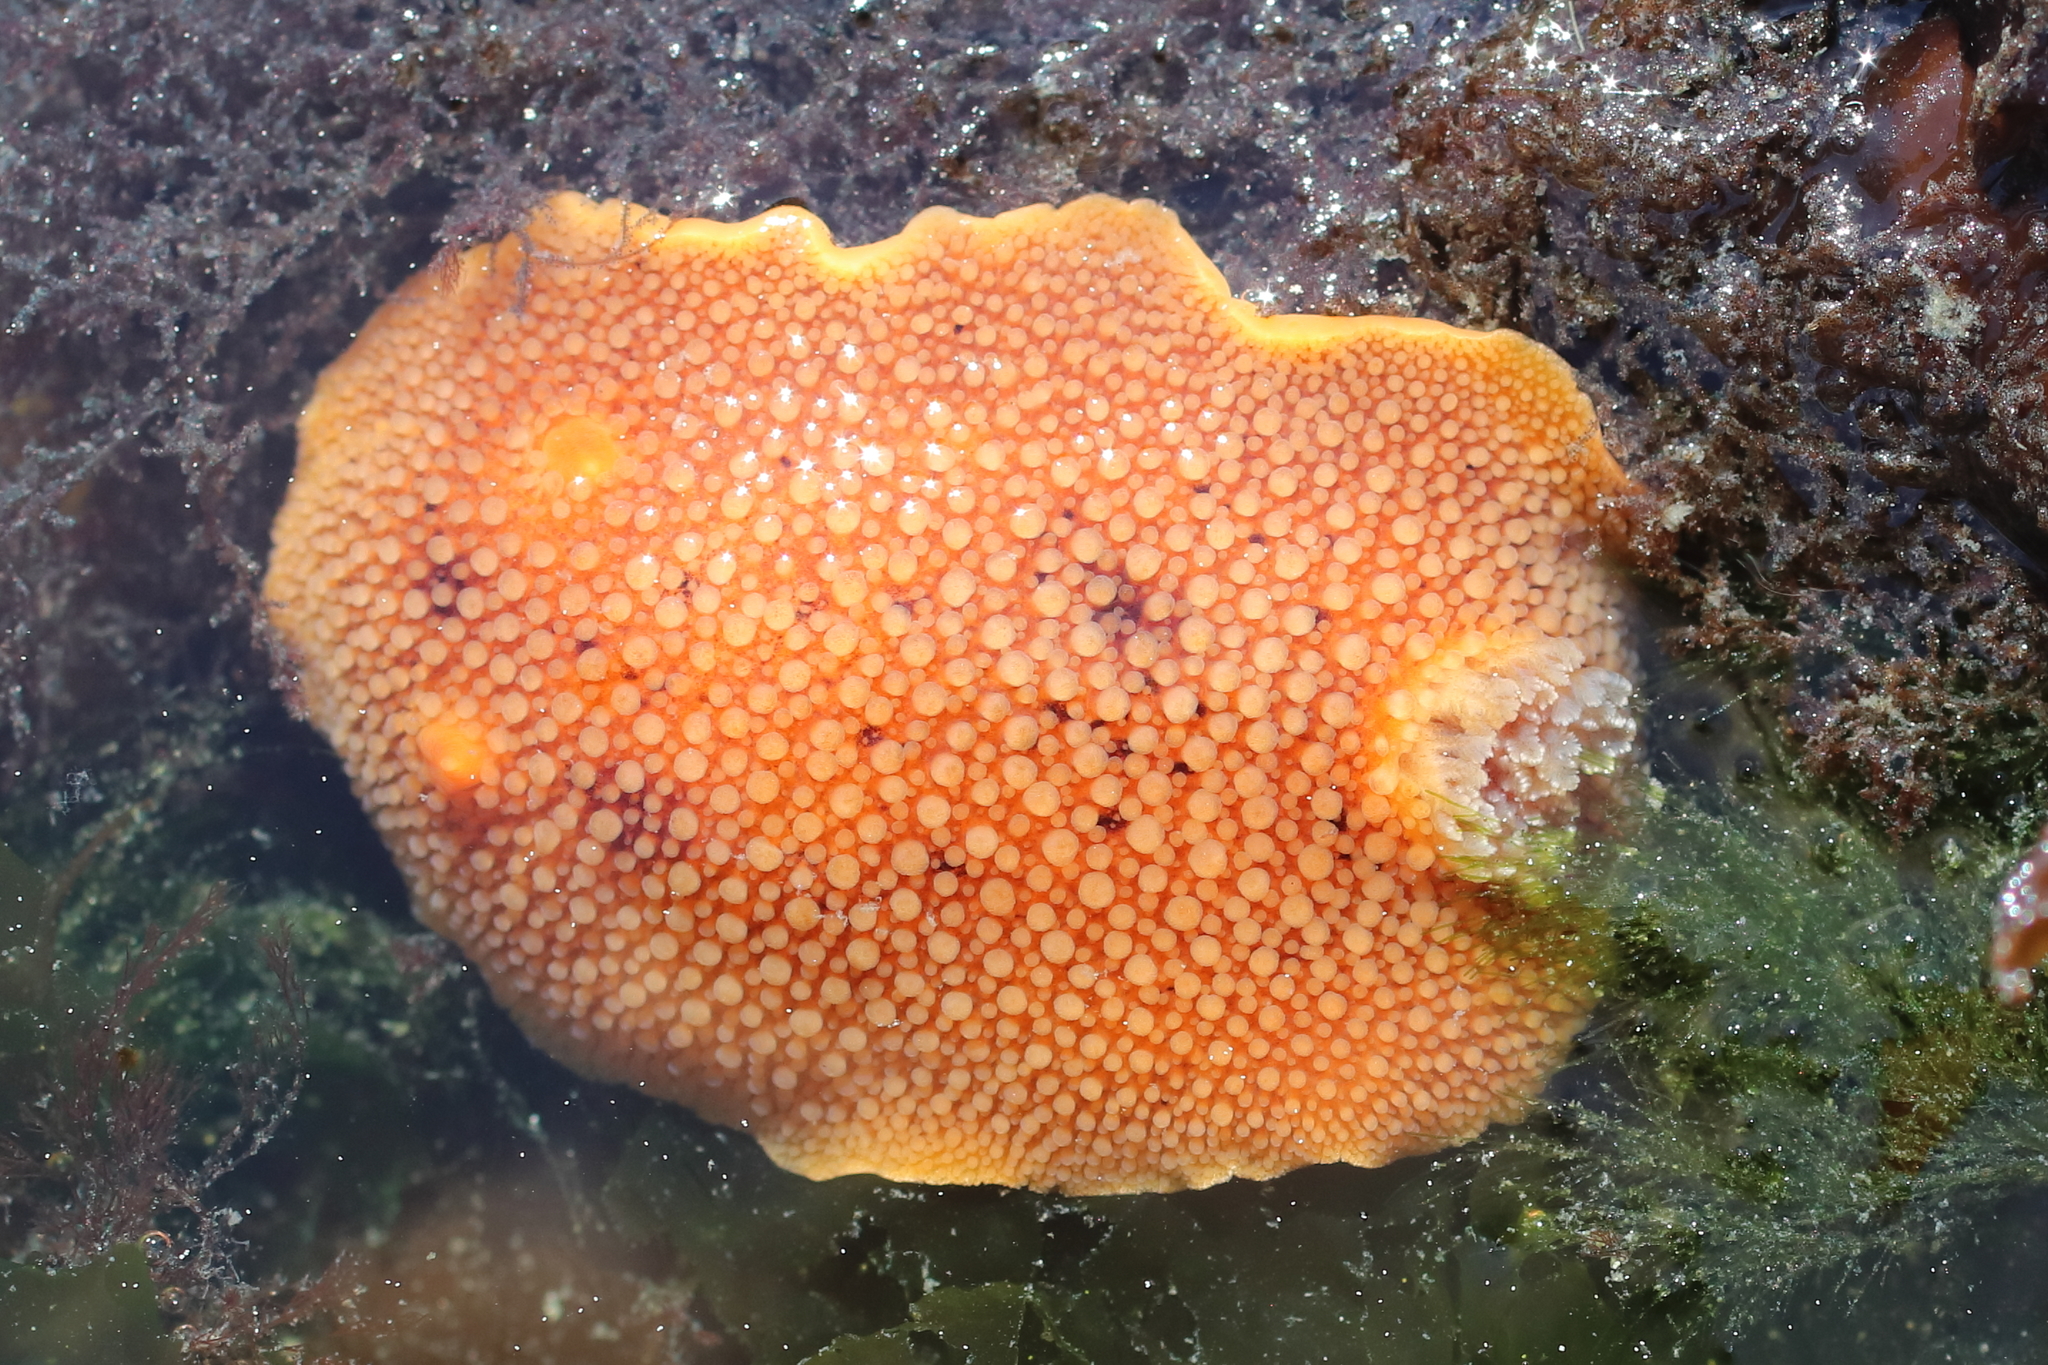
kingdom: Animalia
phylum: Mollusca
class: Gastropoda
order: Nudibranchia
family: Discodorididae
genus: Peltodoris
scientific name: Peltodoris nobilis
